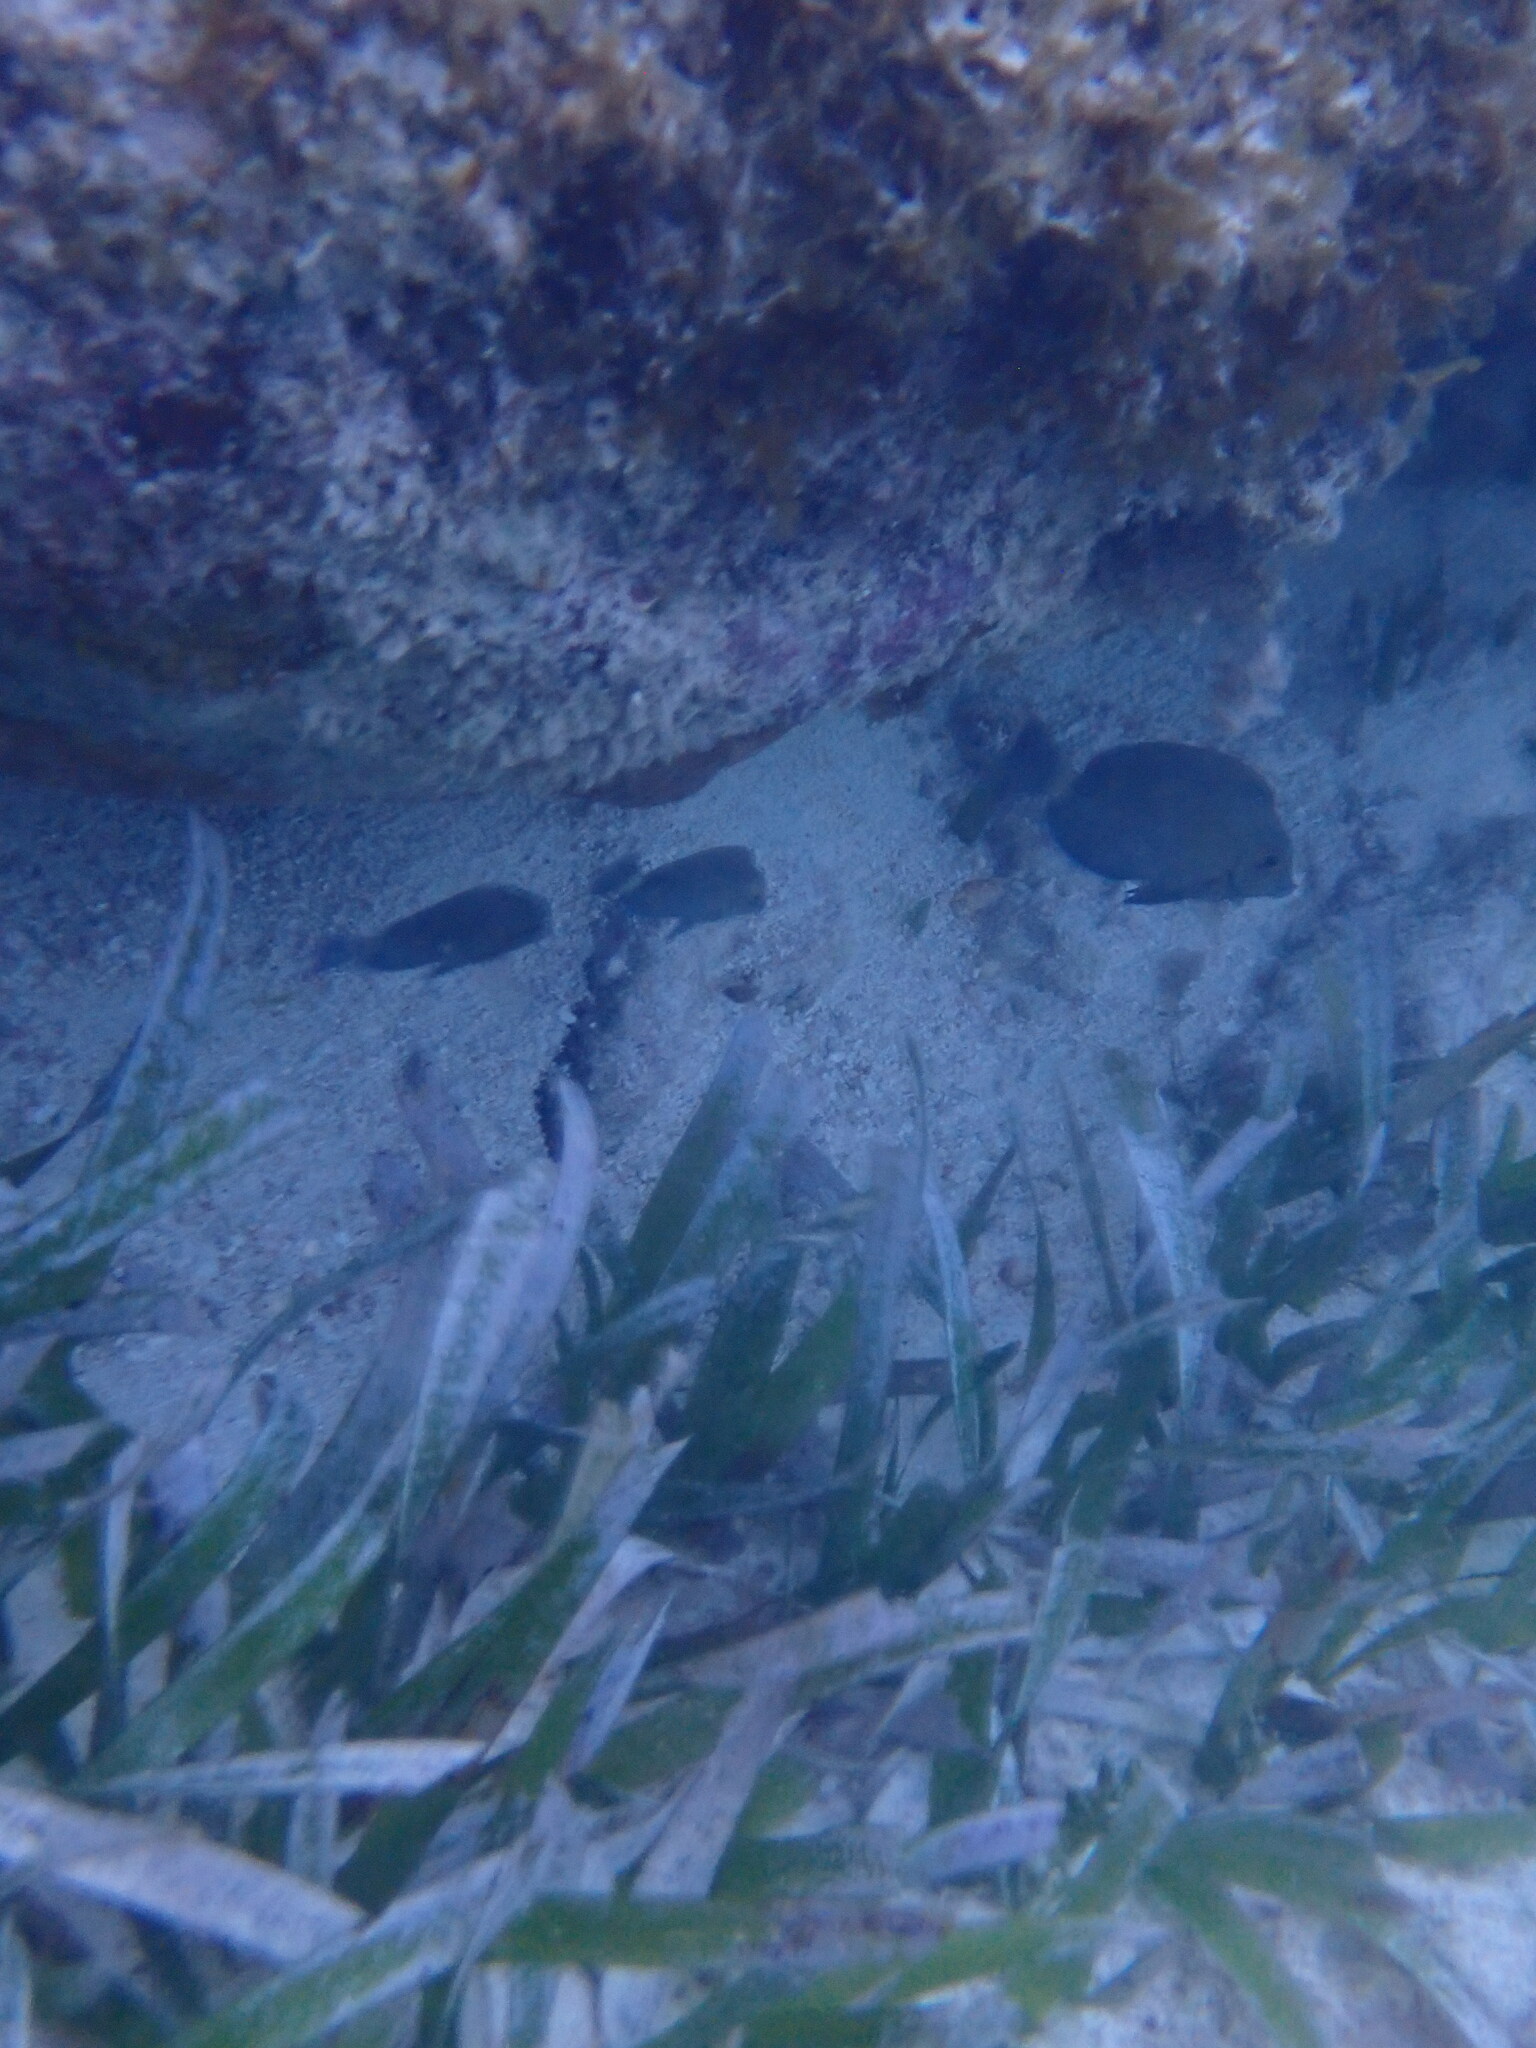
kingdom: Animalia
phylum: Chordata
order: Perciformes
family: Acanthuridae
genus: Acanthurus
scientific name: Acanthurus bahianus
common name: Ocean surgeon
